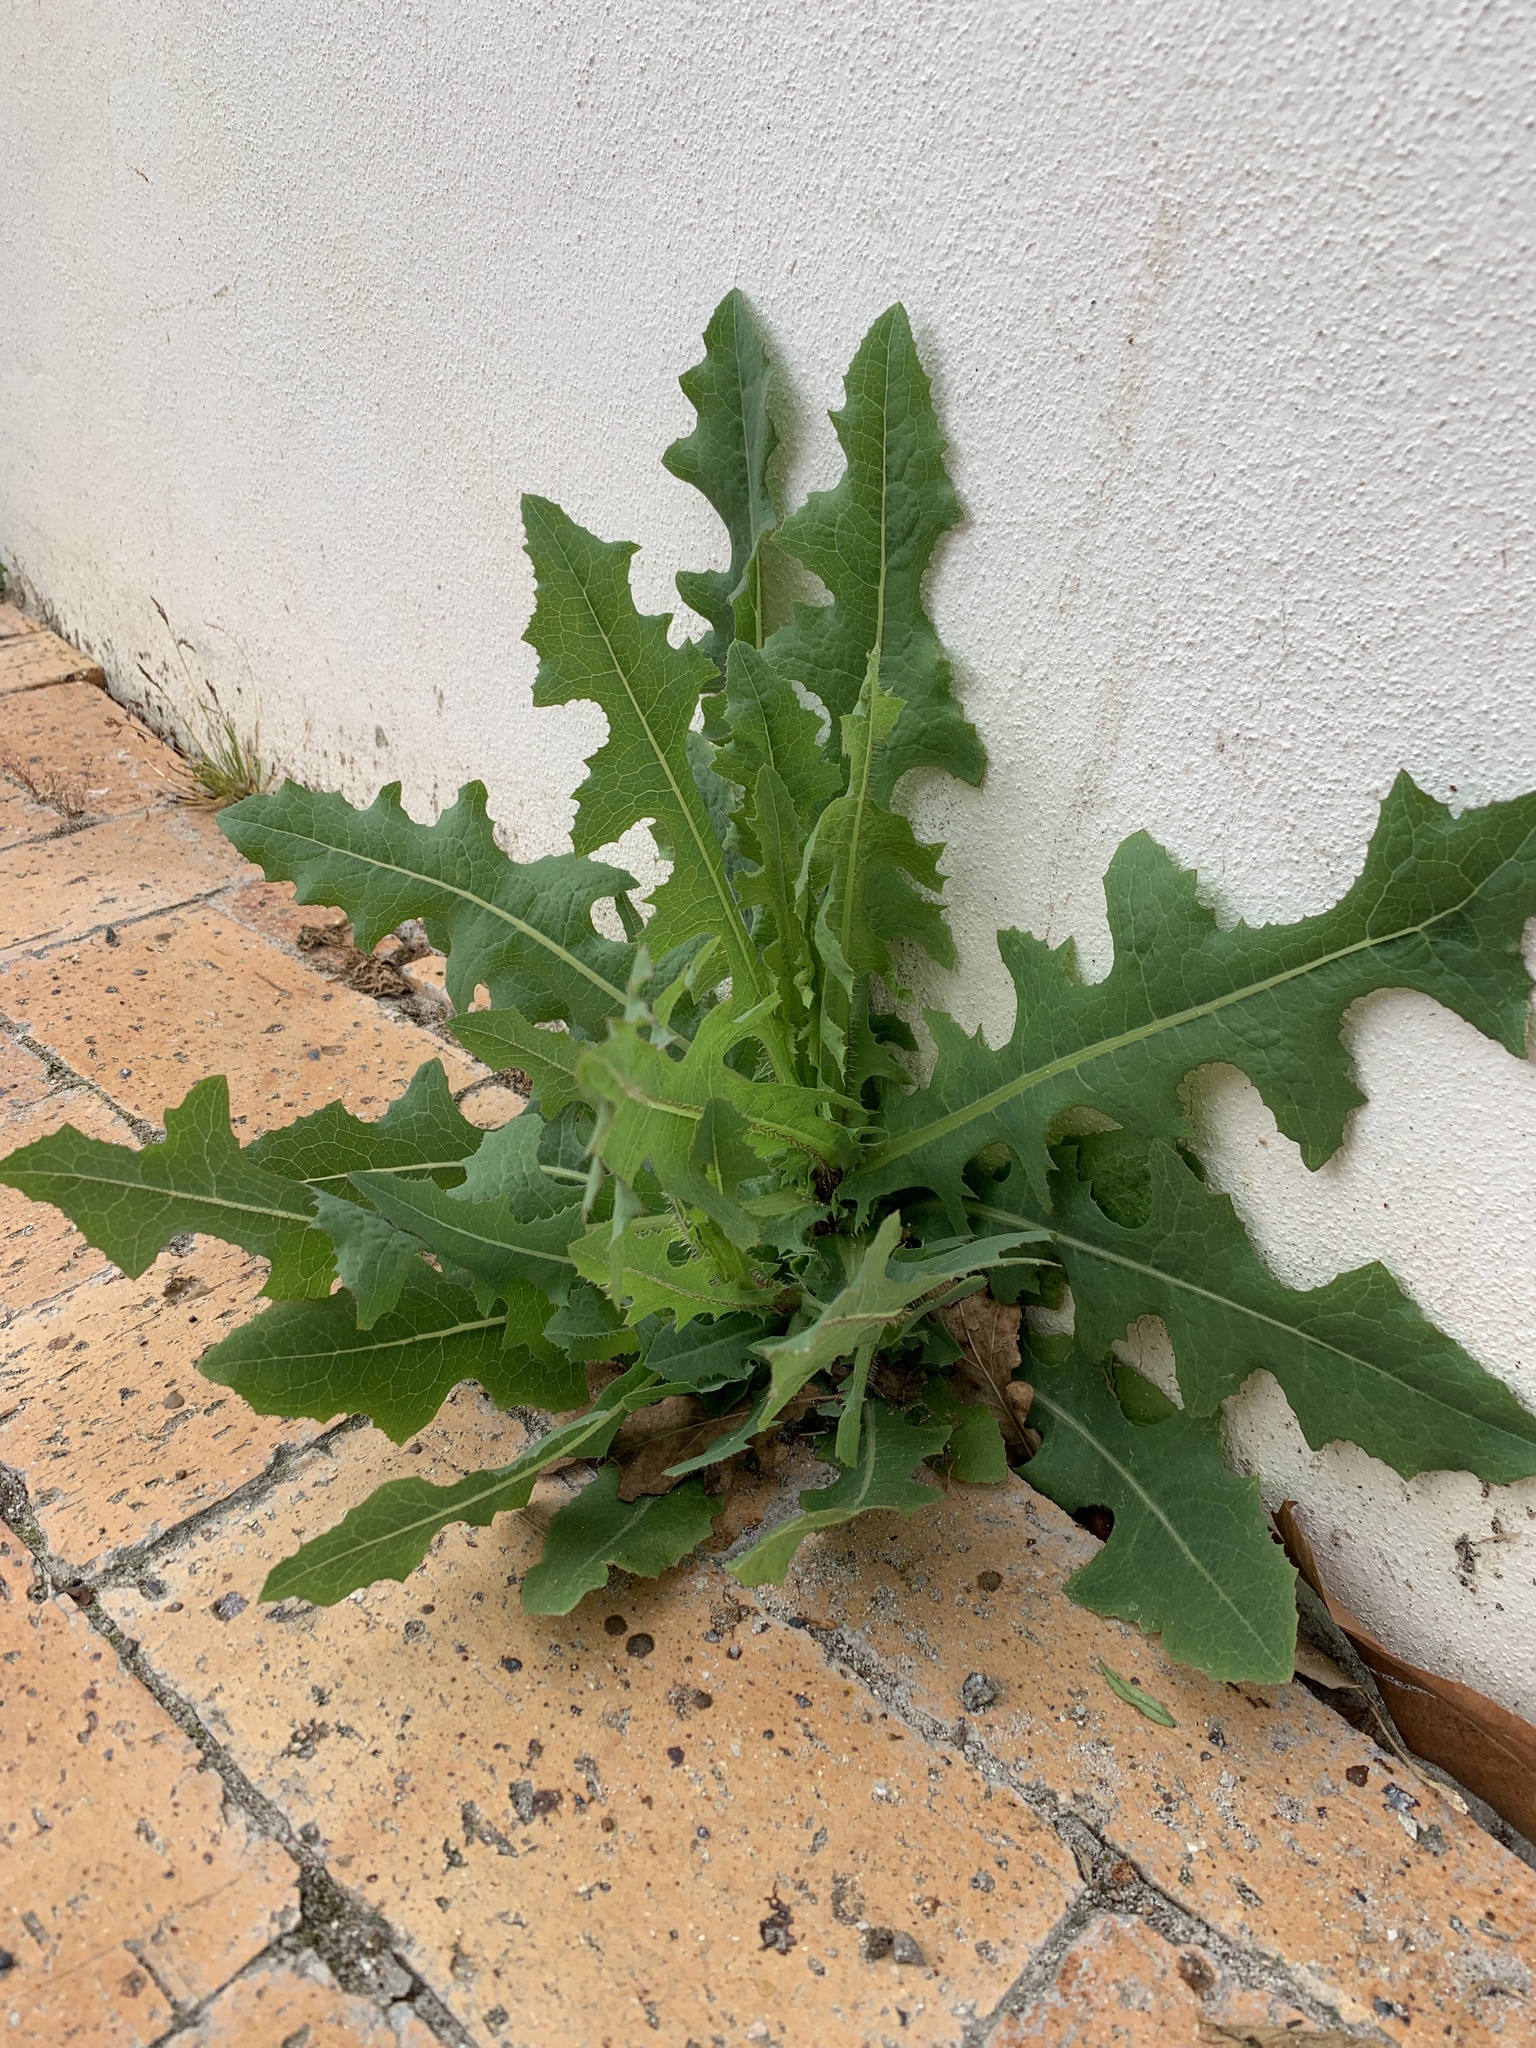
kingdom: Plantae
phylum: Tracheophyta
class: Magnoliopsida
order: Asterales
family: Asteraceae
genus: Lactuca
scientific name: Lactuca serriola
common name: Prickly lettuce
